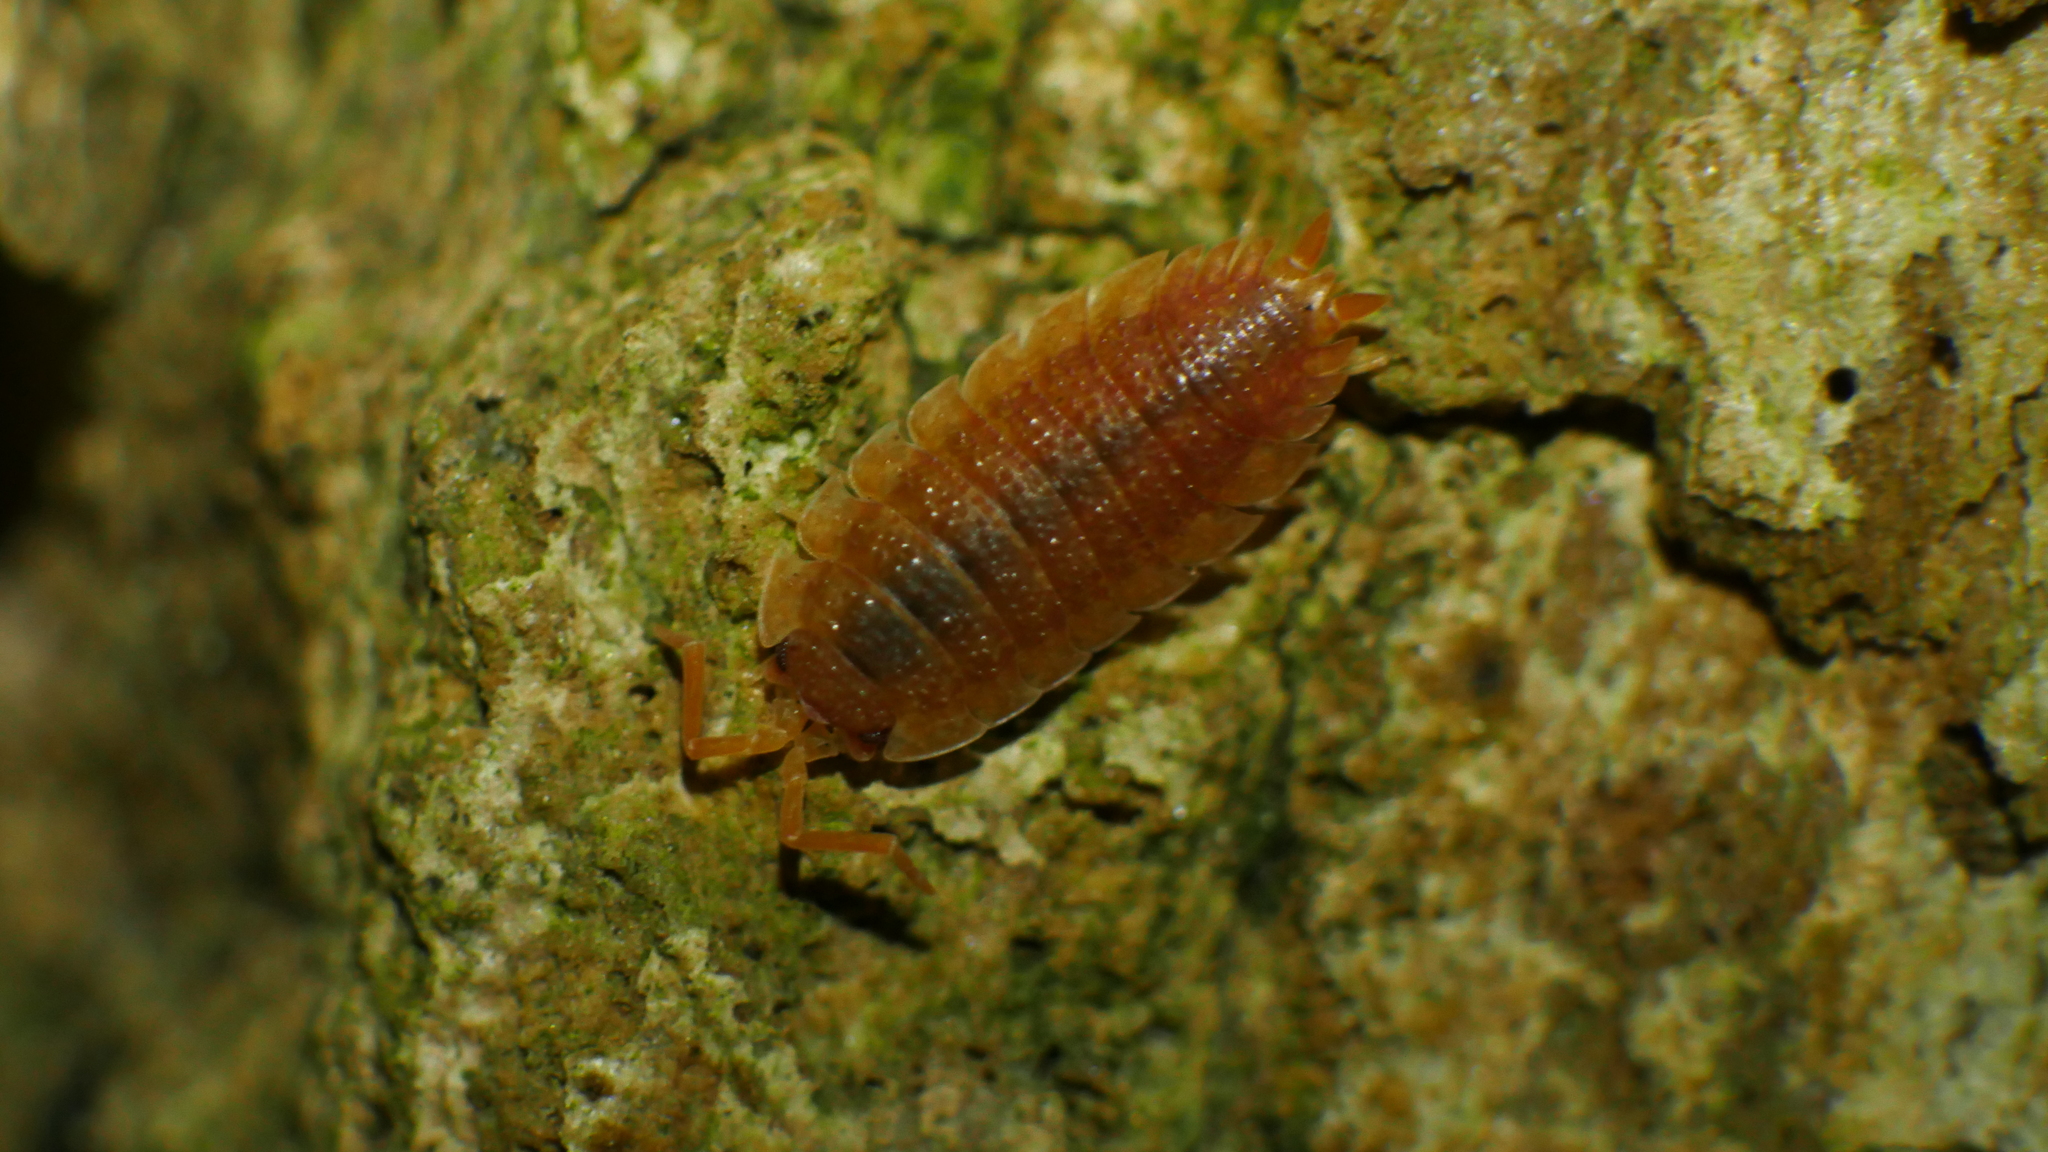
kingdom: Animalia
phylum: Arthropoda
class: Malacostraca
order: Isopoda
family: Porcellionidae
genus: Porcellio
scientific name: Porcellio scaber
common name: Common rough woodlouse
